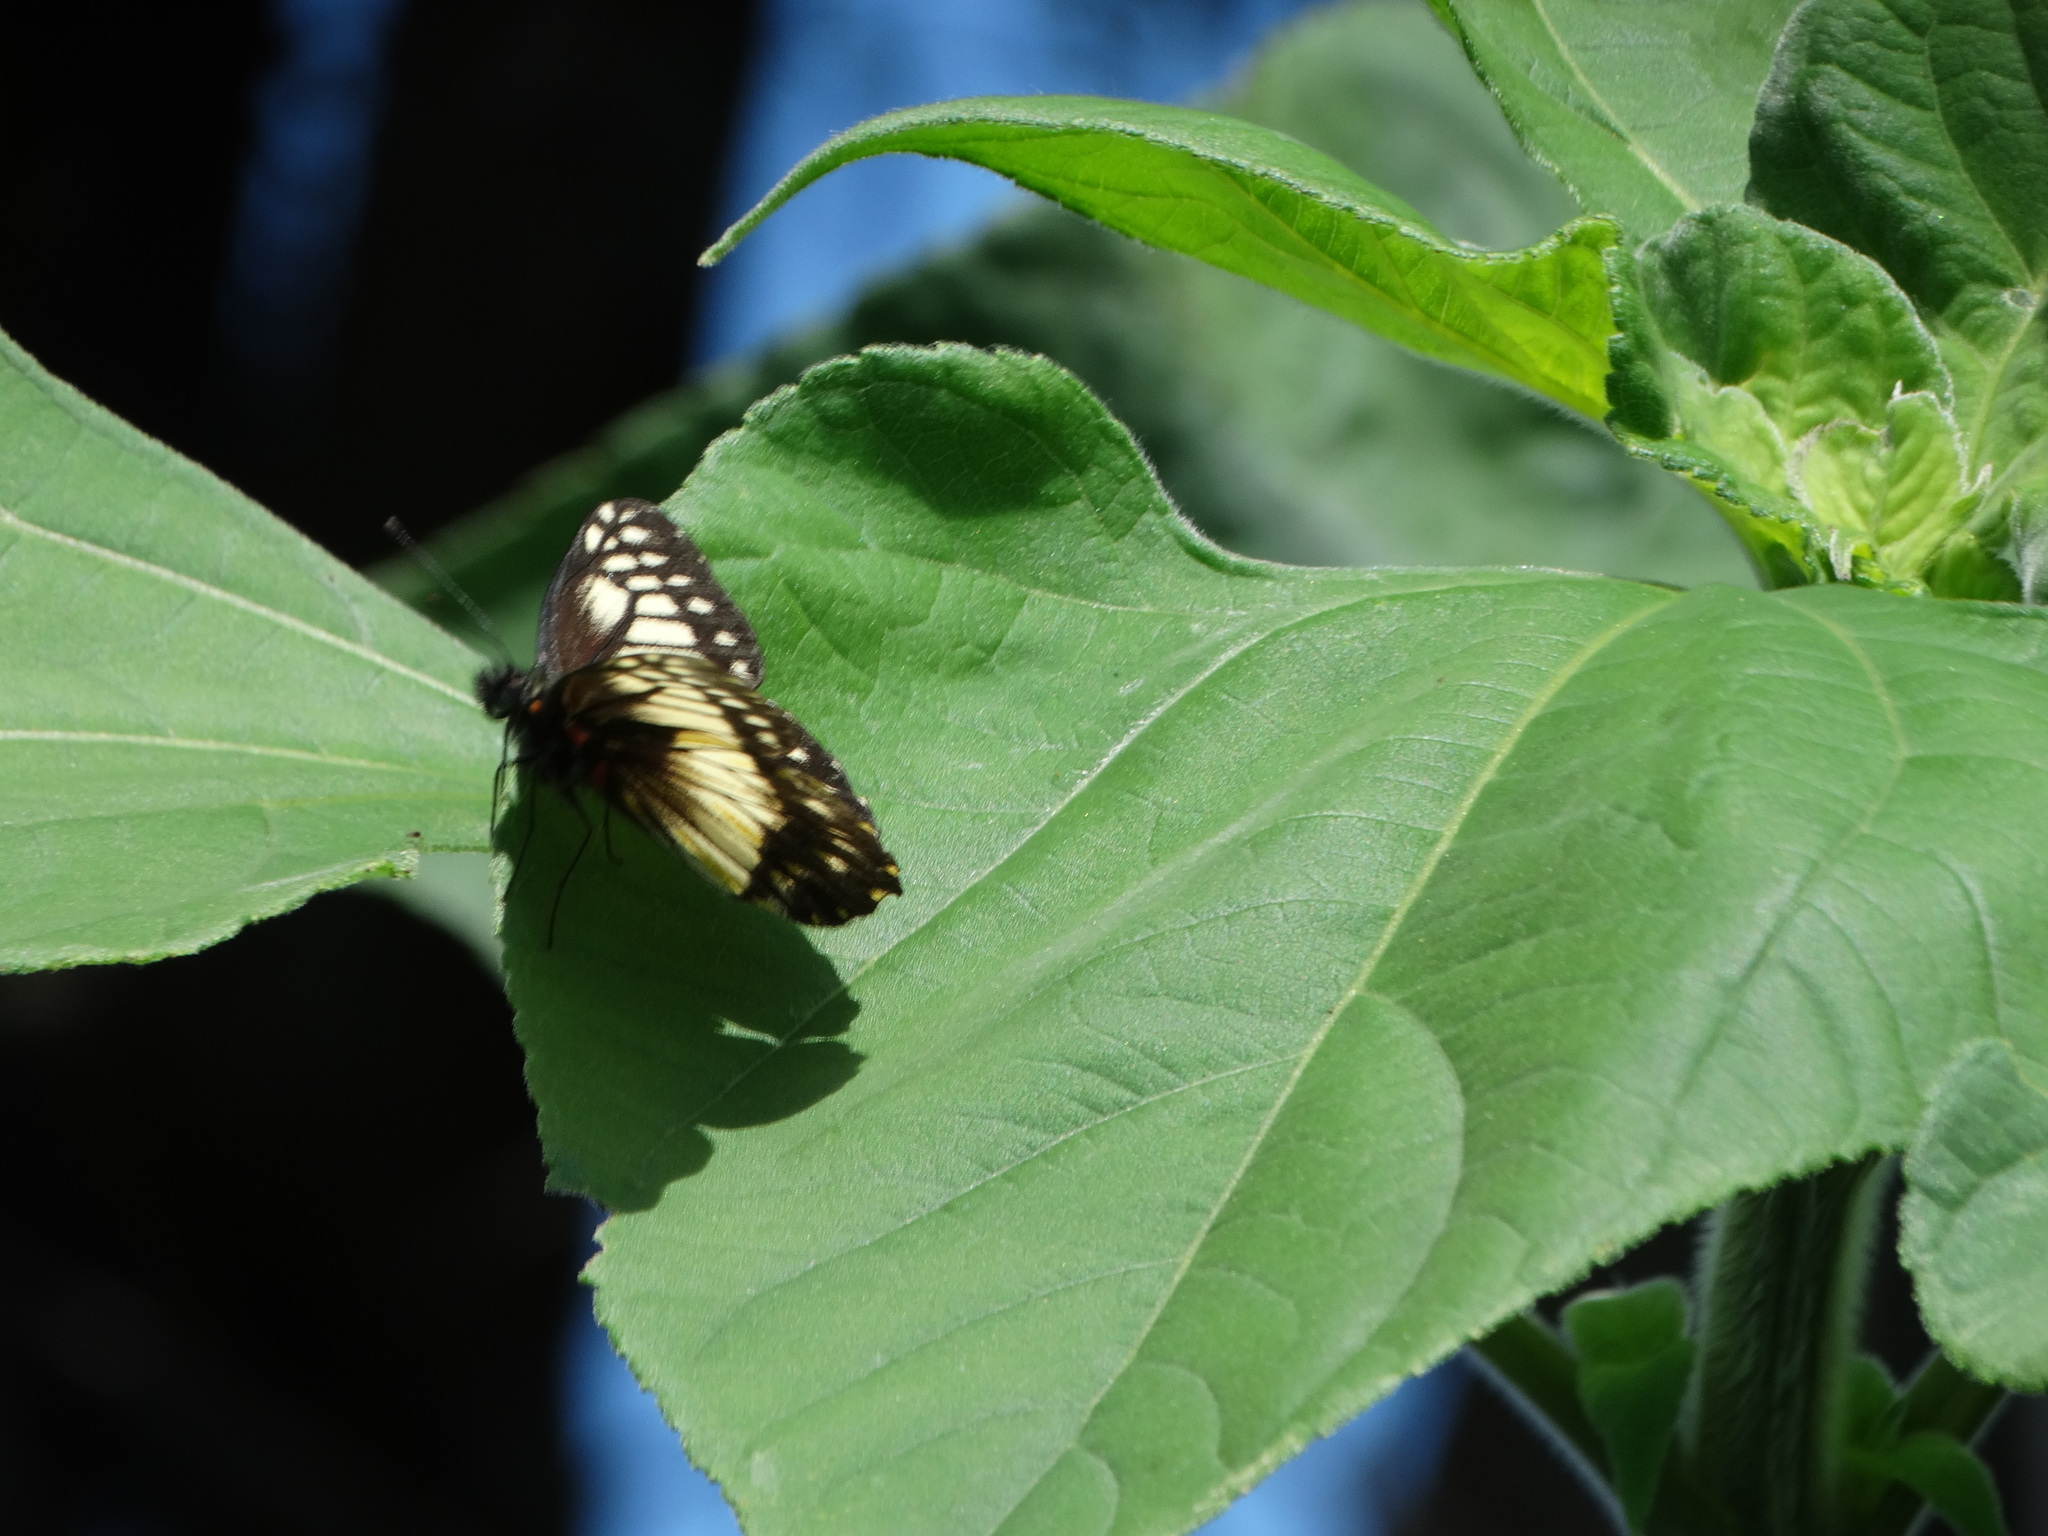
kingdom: Animalia
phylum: Arthropoda
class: Insecta
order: Lepidoptera
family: Pieridae
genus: Archonias
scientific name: Archonias nimbice
